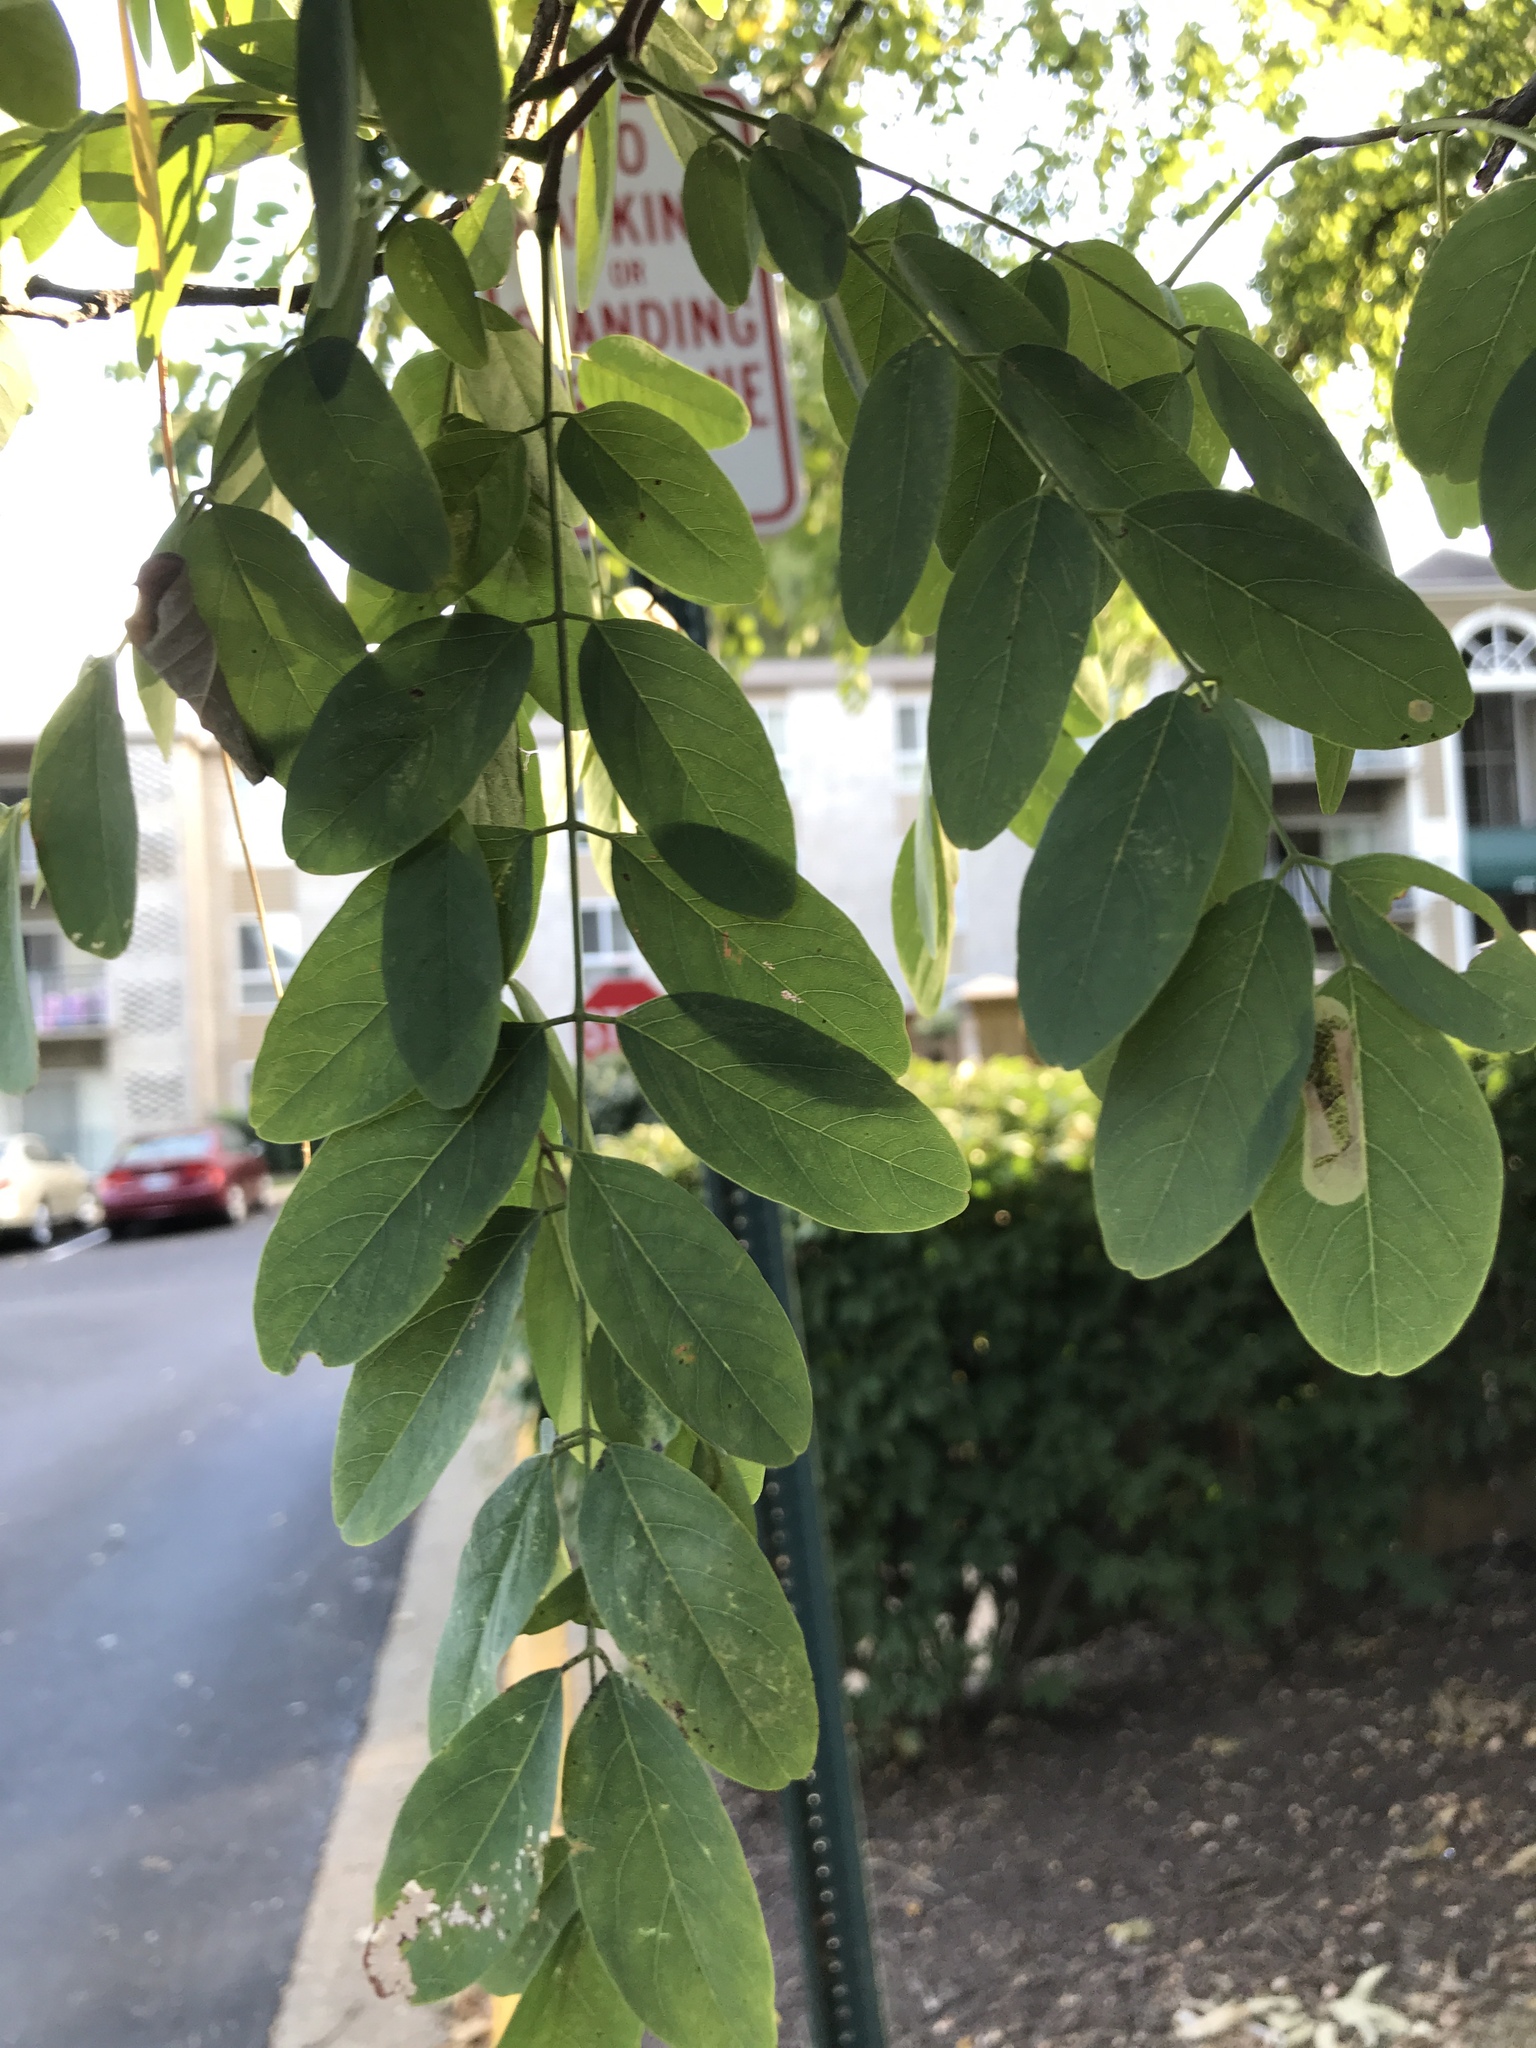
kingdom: Plantae
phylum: Tracheophyta
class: Magnoliopsida
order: Fabales
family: Fabaceae
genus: Robinia
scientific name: Robinia pseudoacacia
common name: Black locust
